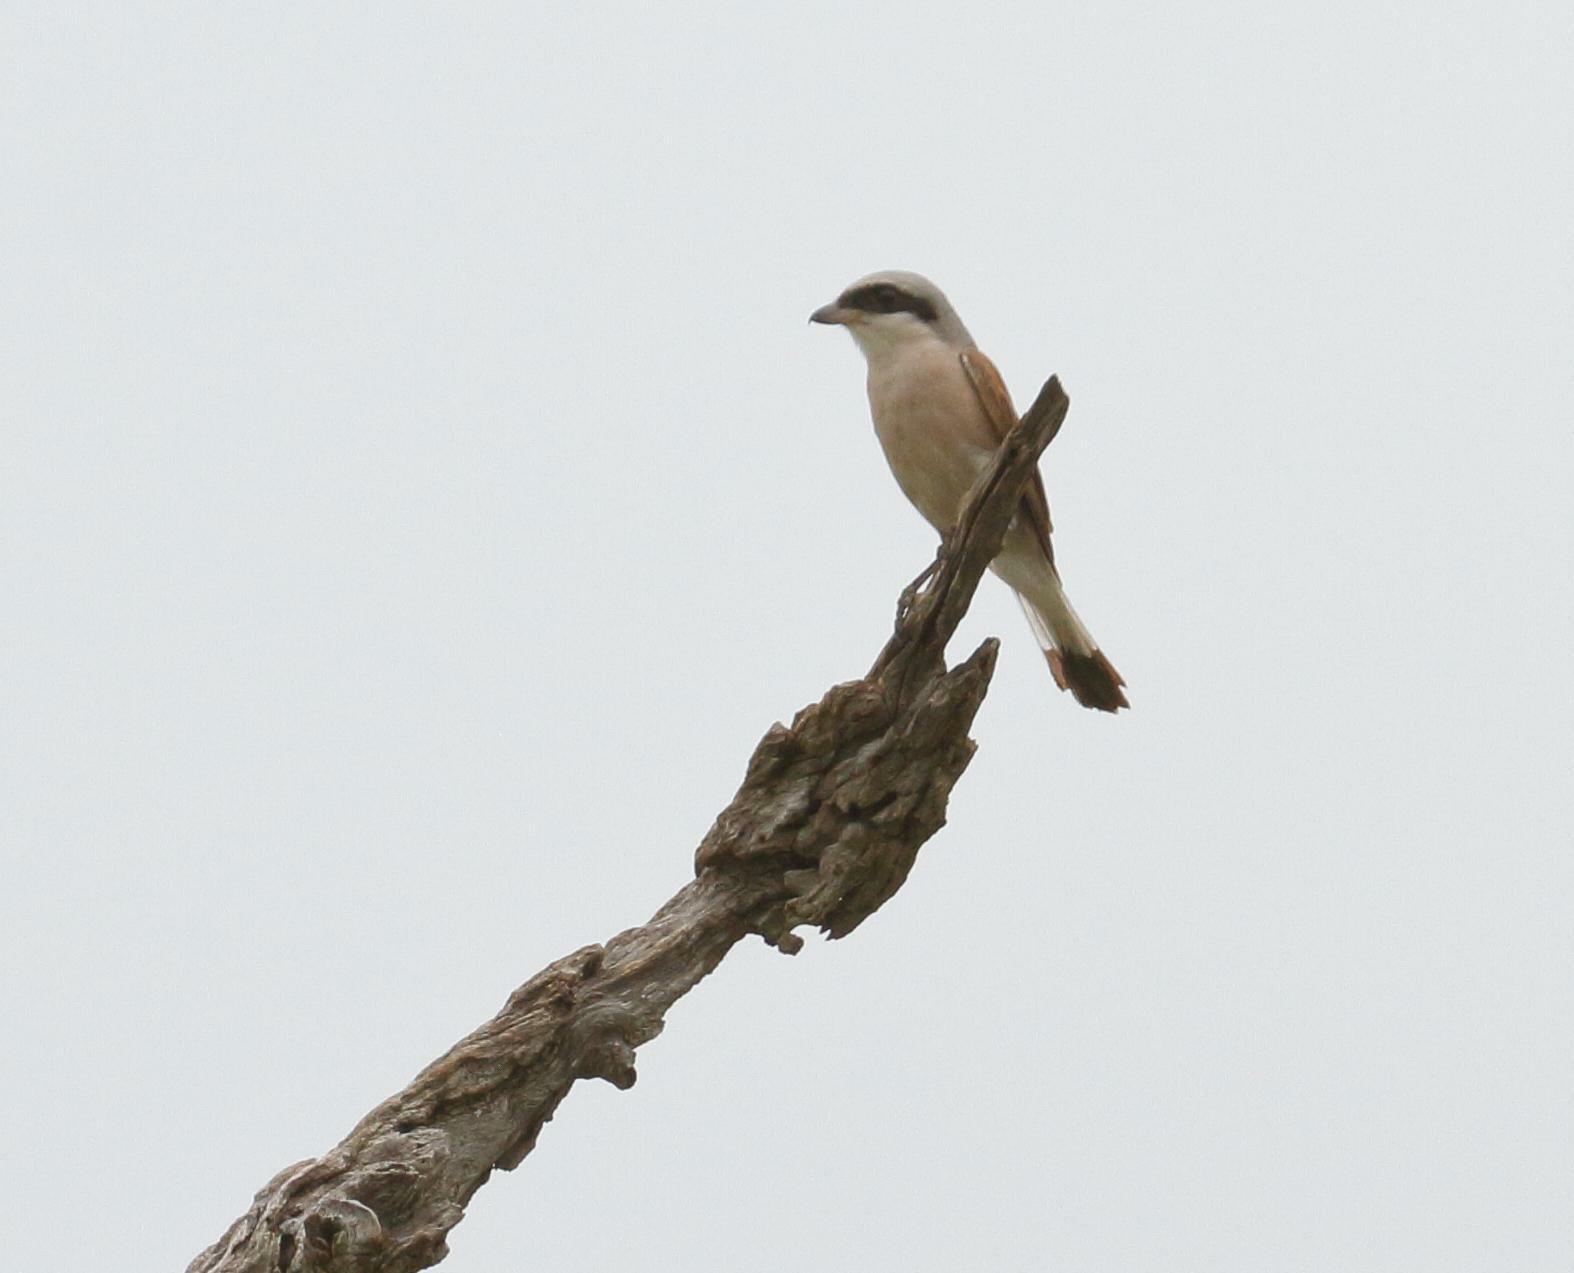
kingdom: Animalia
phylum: Chordata
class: Aves
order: Passeriformes
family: Laniidae
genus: Lanius
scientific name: Lanius collurio
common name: Red-backed shrike
